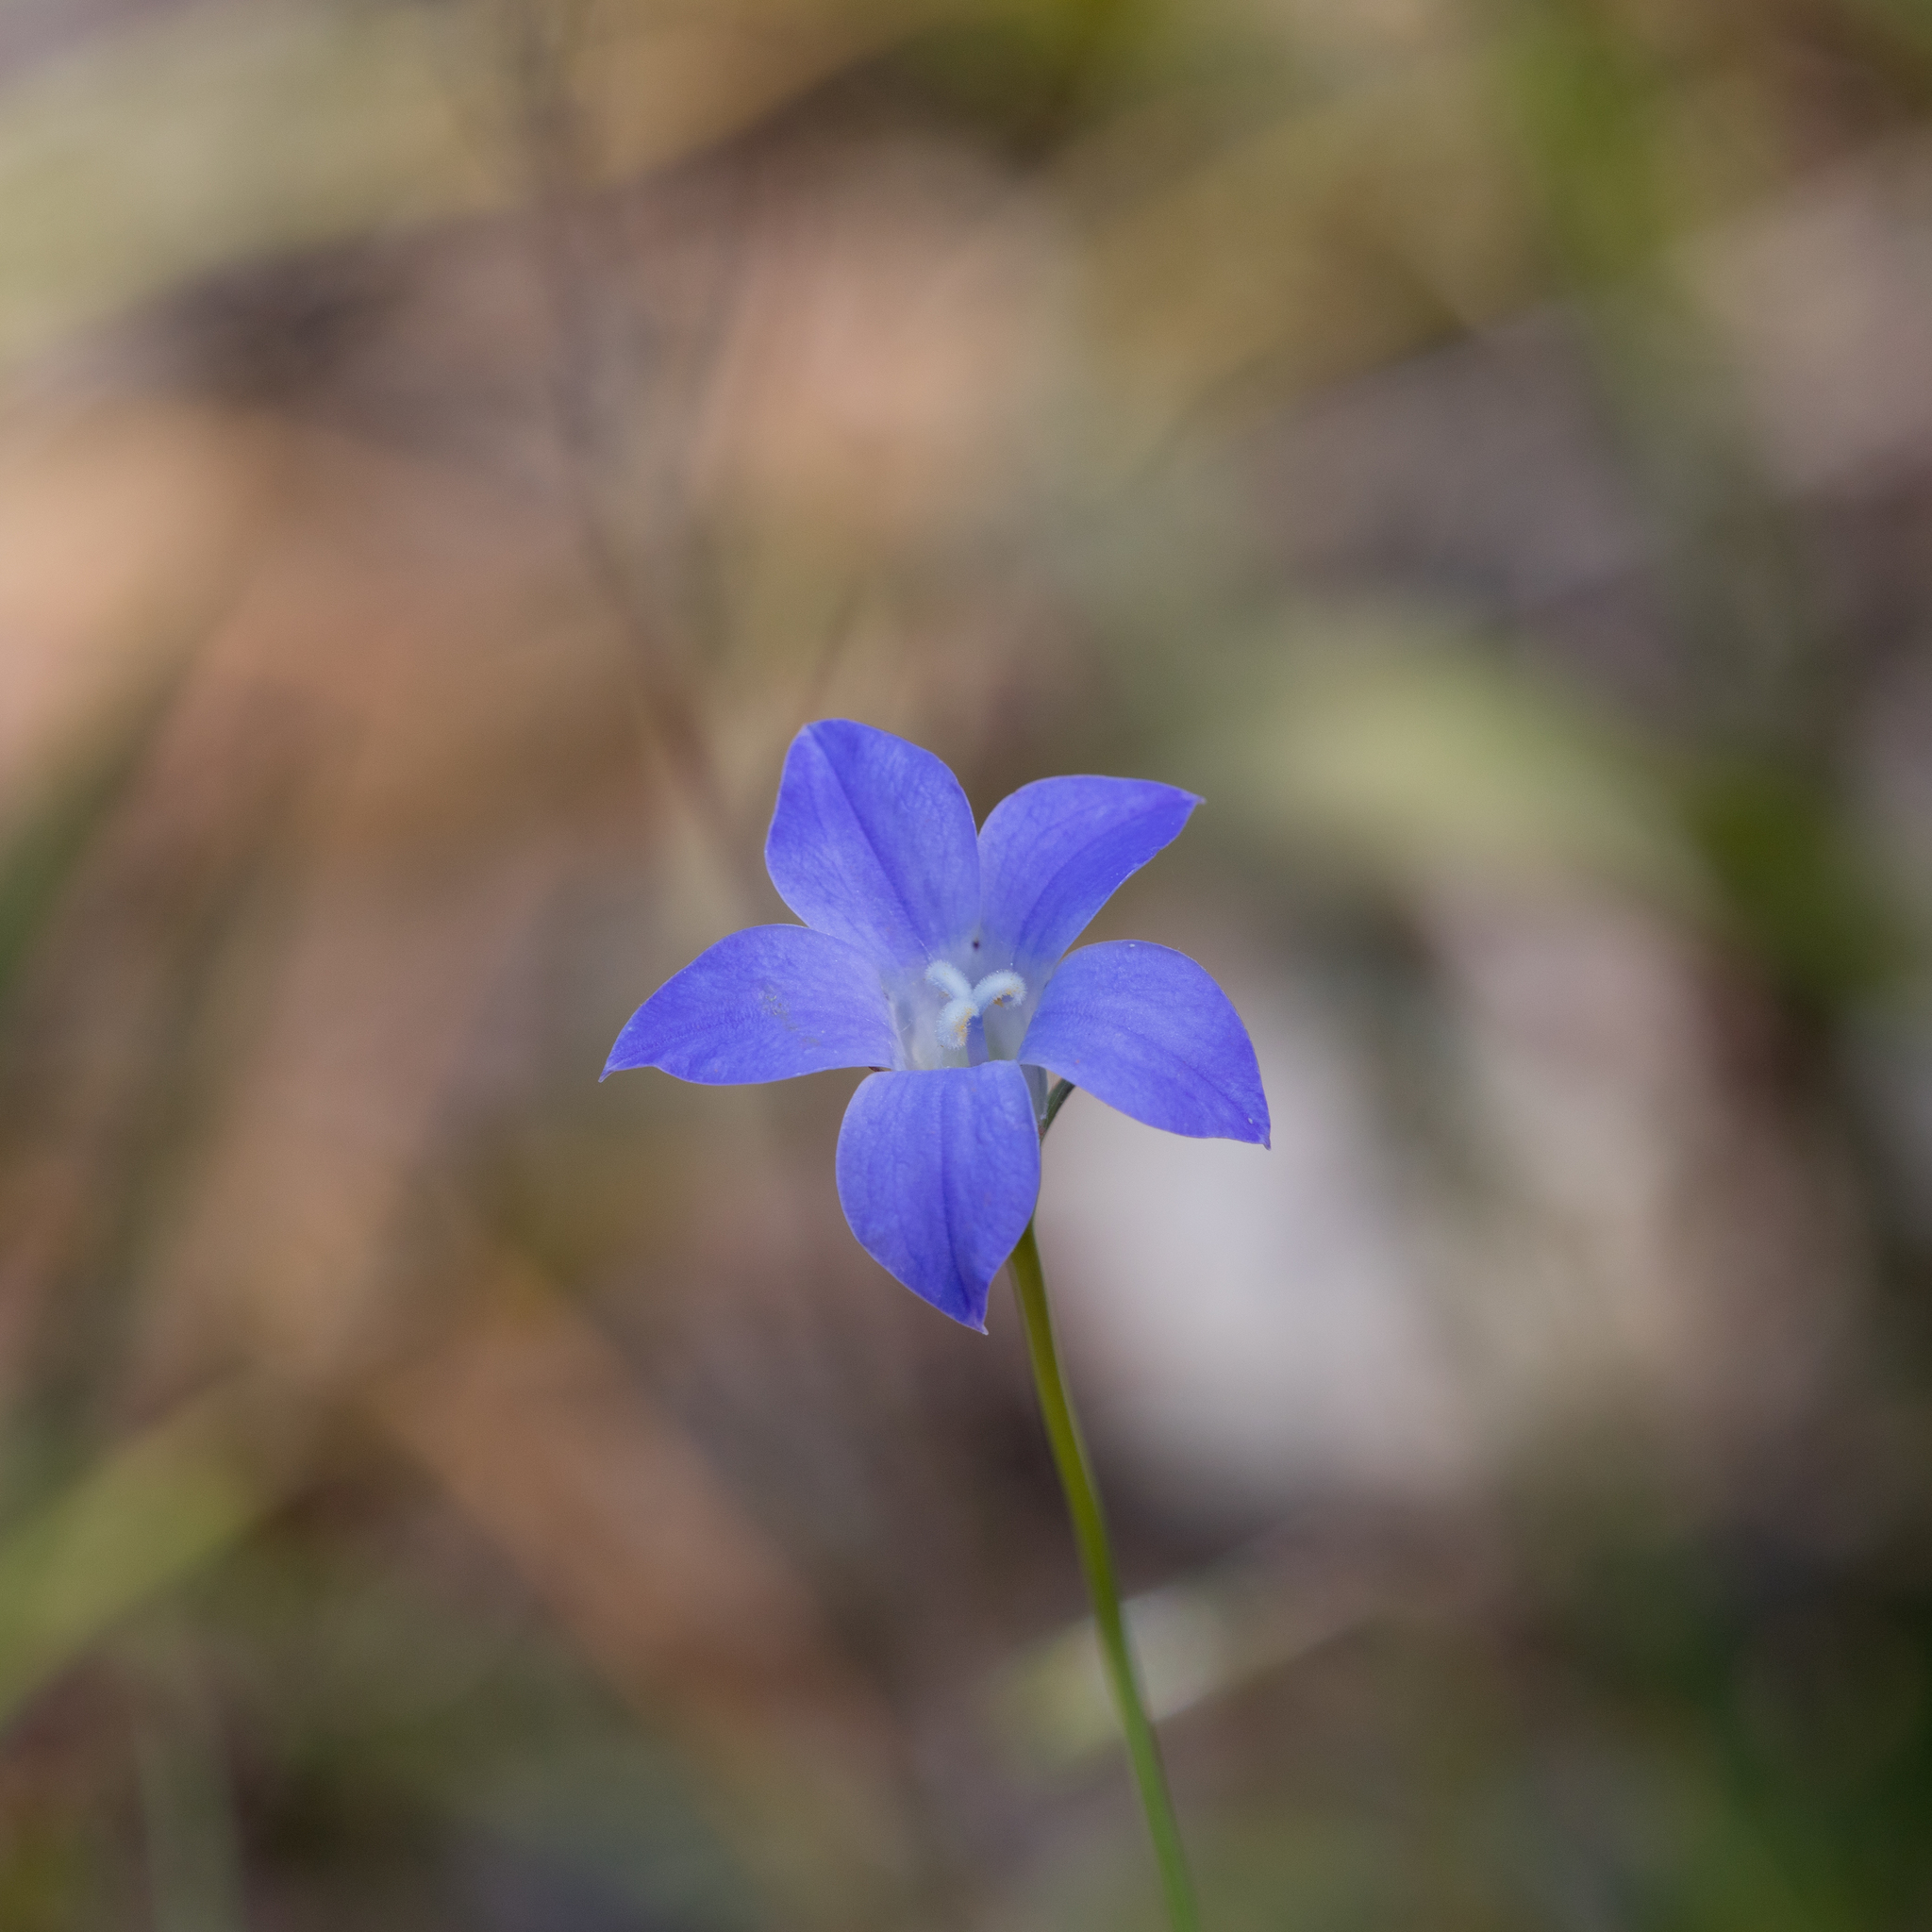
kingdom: Plantae
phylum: Tracheophyta
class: Magnoliopsida
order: Asterales
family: Campanulaceae
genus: Wahlenbergia
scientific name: Wahlenbergia stricta
